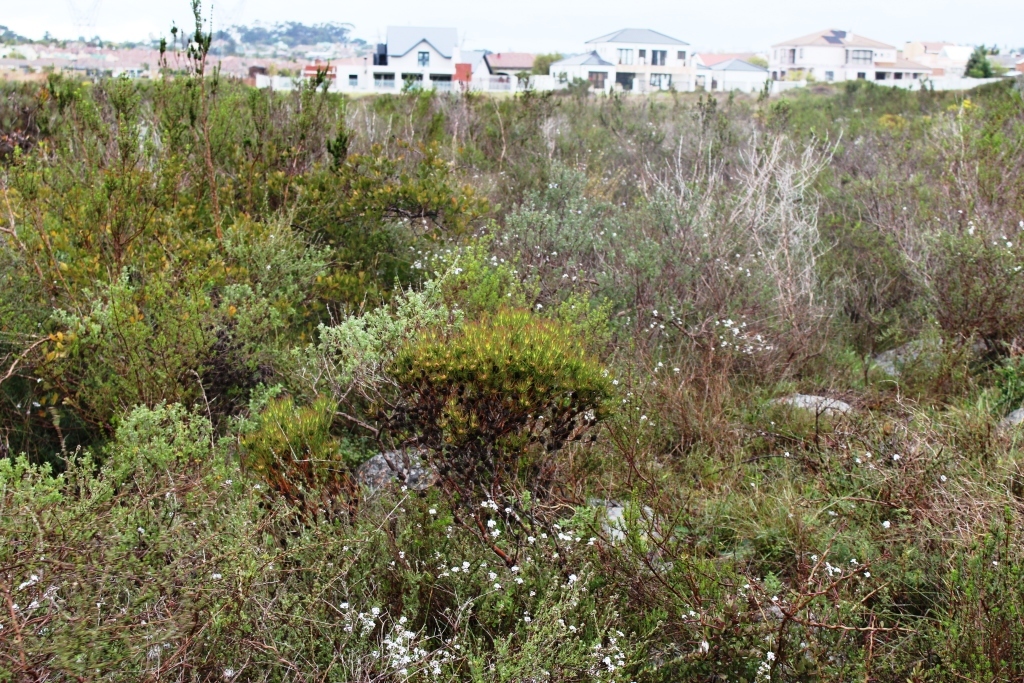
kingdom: Plantae
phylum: Tracheophyta
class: Magnoliopsida
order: Proteales
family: Proteaceae
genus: Leucadendron
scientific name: Leucadendron lanigerum
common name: Shale conebush
